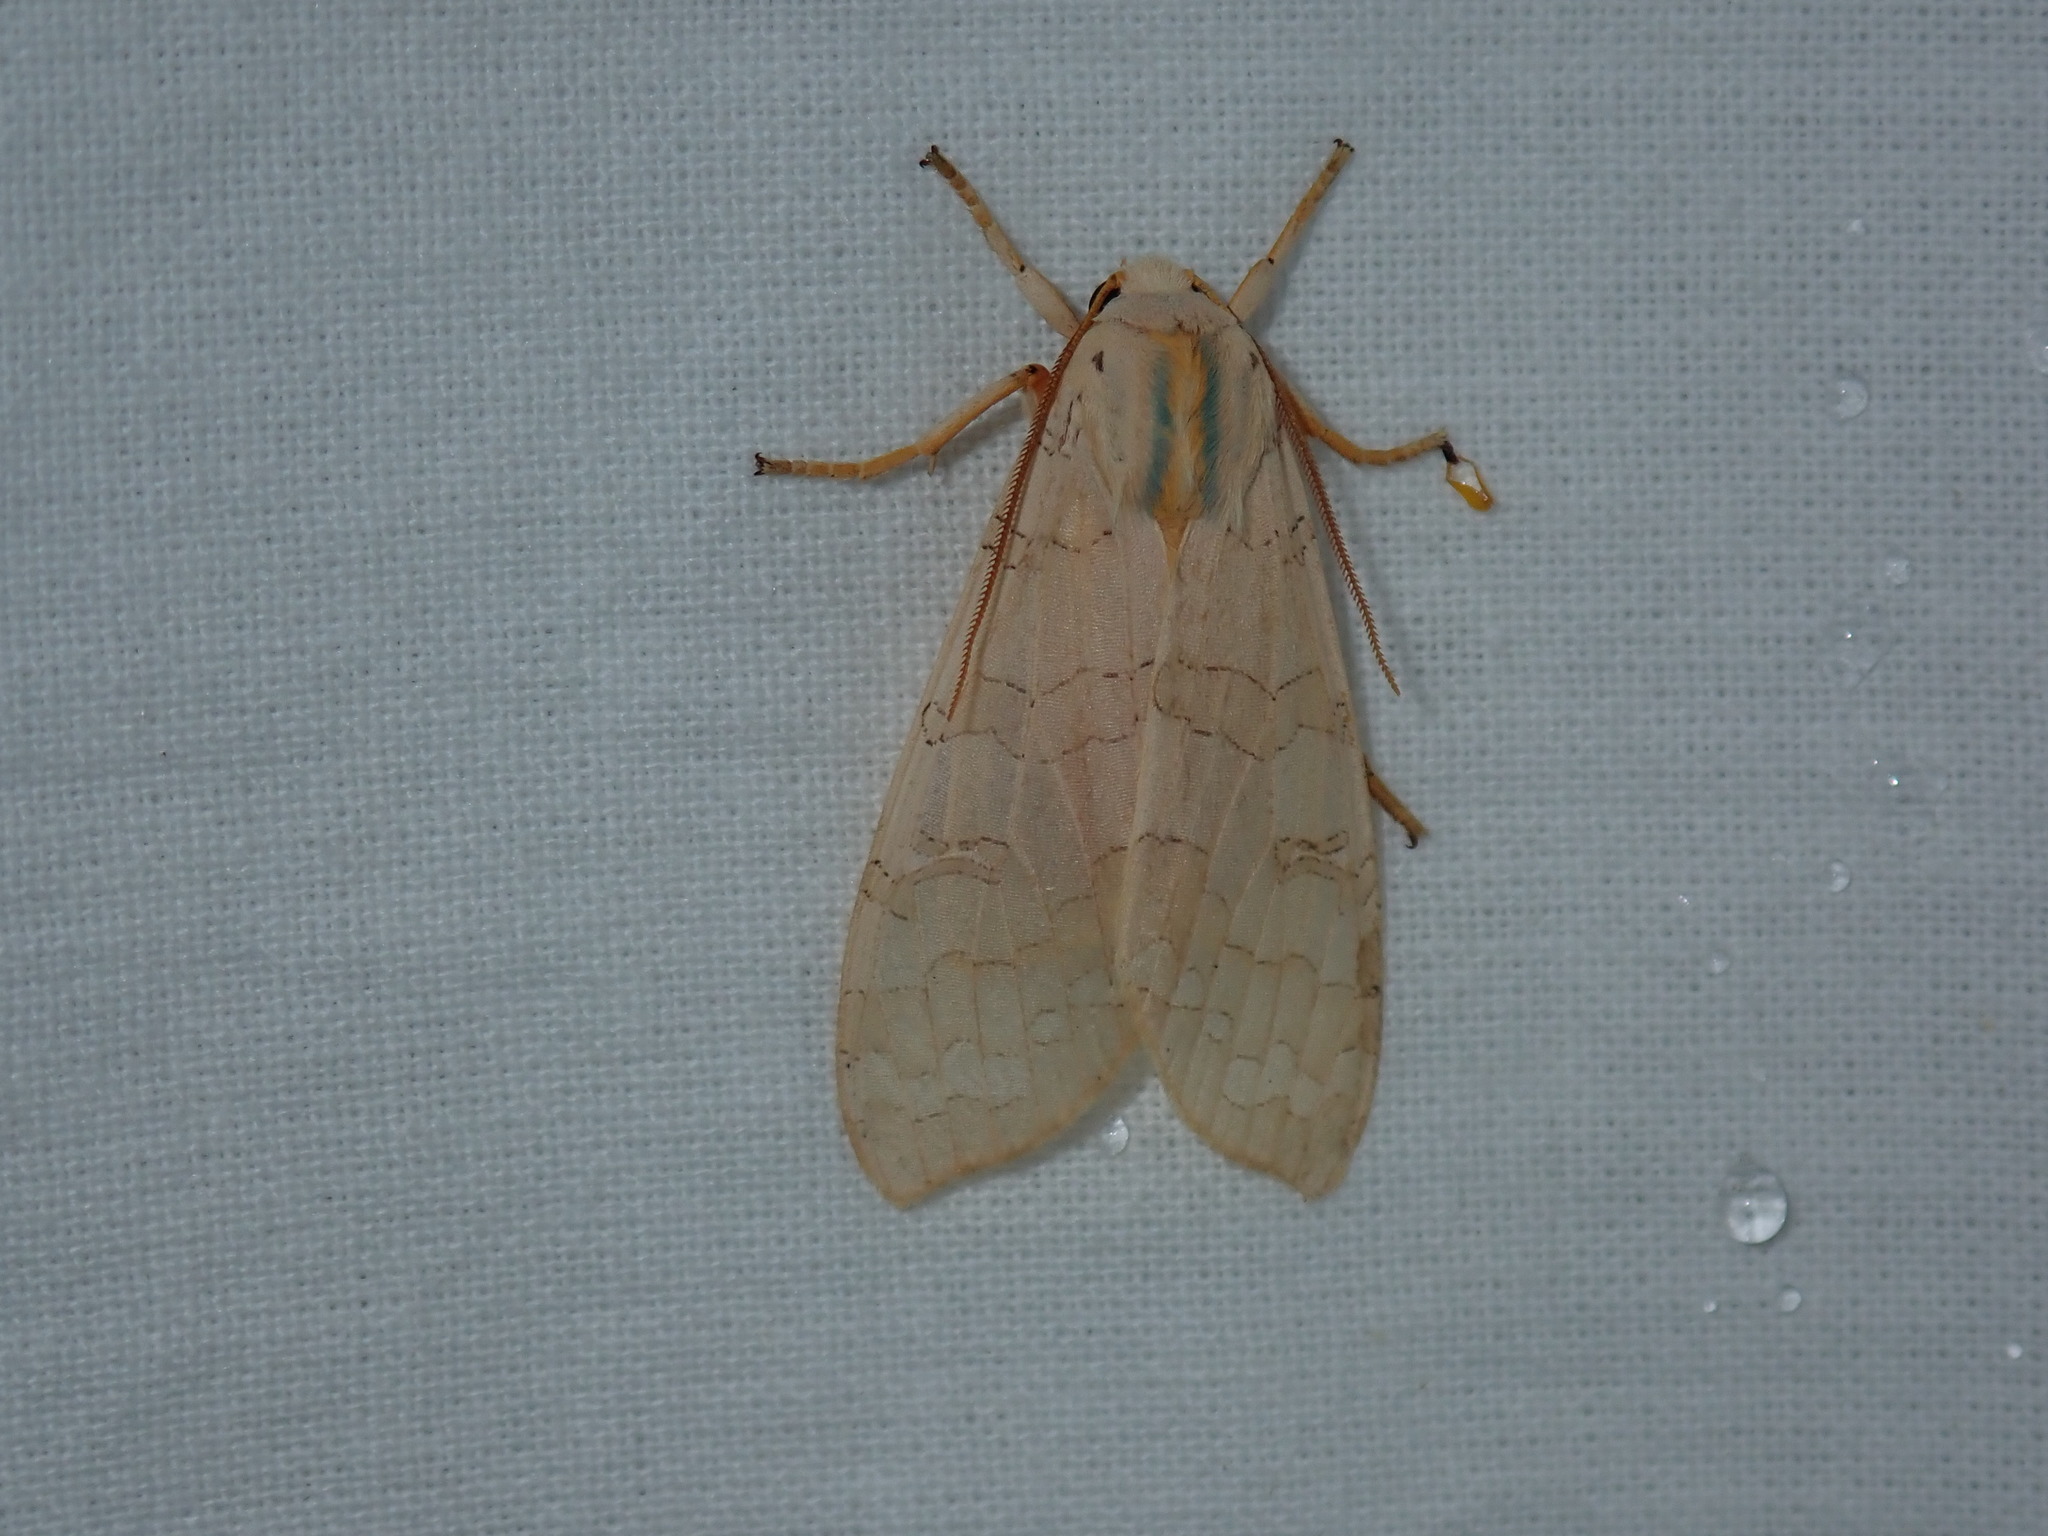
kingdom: Animalia
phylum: Arthropoda
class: Insecta
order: Lepidoptera
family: Erebidae
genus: Halysidota
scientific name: Halysidota
